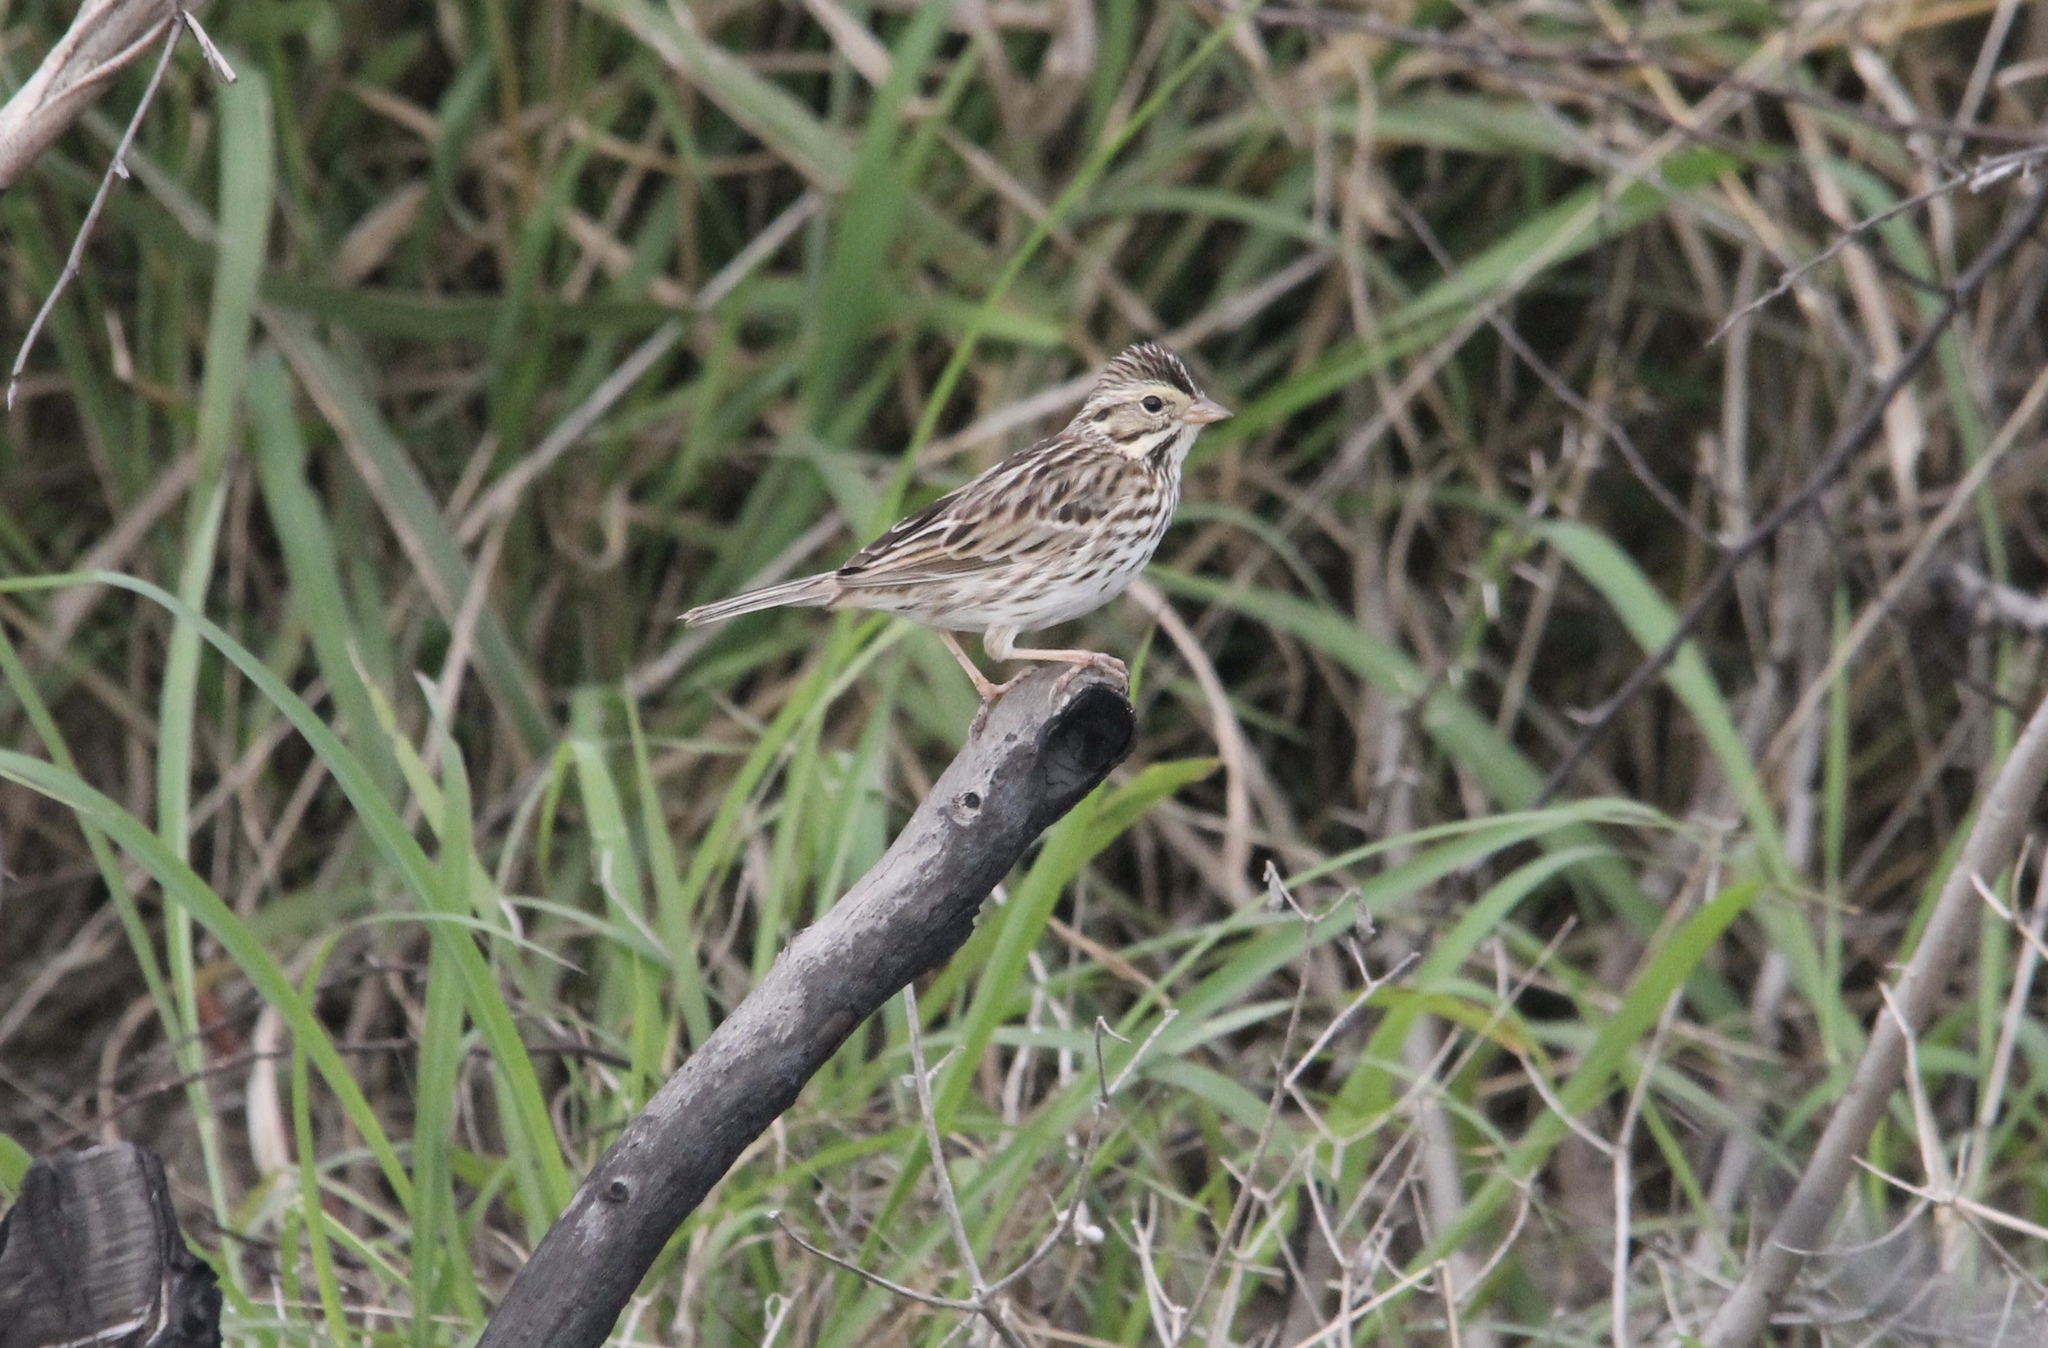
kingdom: Animalia
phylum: Chordata
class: Aves
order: Passeriformes
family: Passerellidae
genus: Passerculus
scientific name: Passerculus sandwichensis
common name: Savannah sparrow
